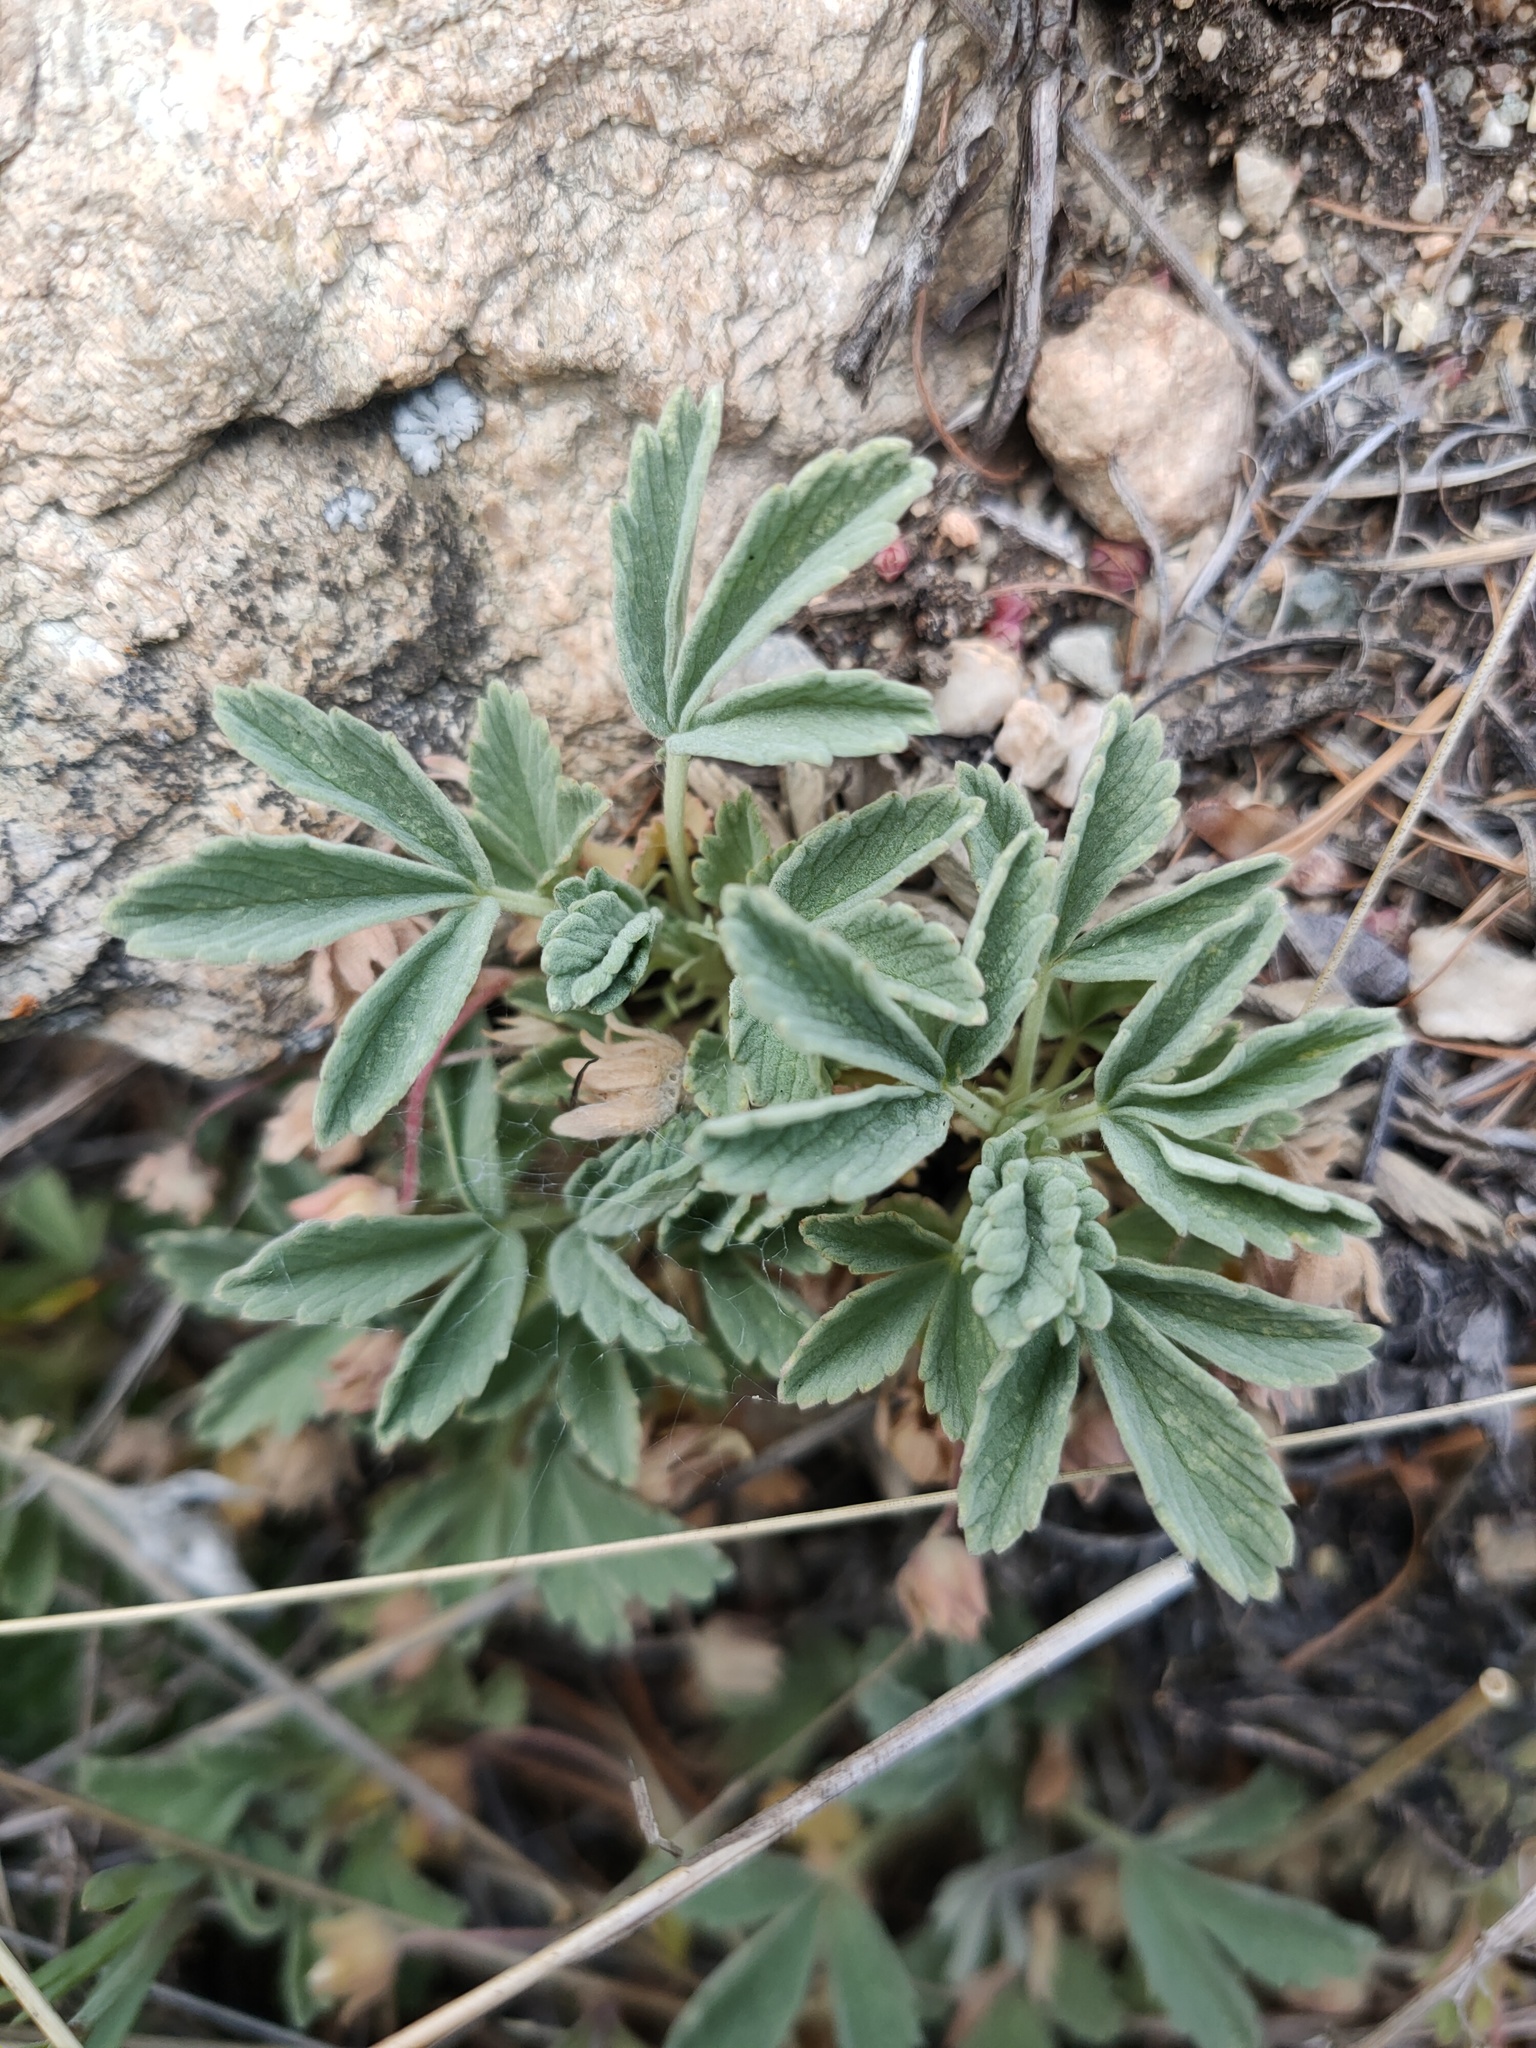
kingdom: Plantae
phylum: Tracheophyta
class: Magnoliopsida
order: Rosales
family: Rosaceae
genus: Potentilla
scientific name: Potentilla acaulis
